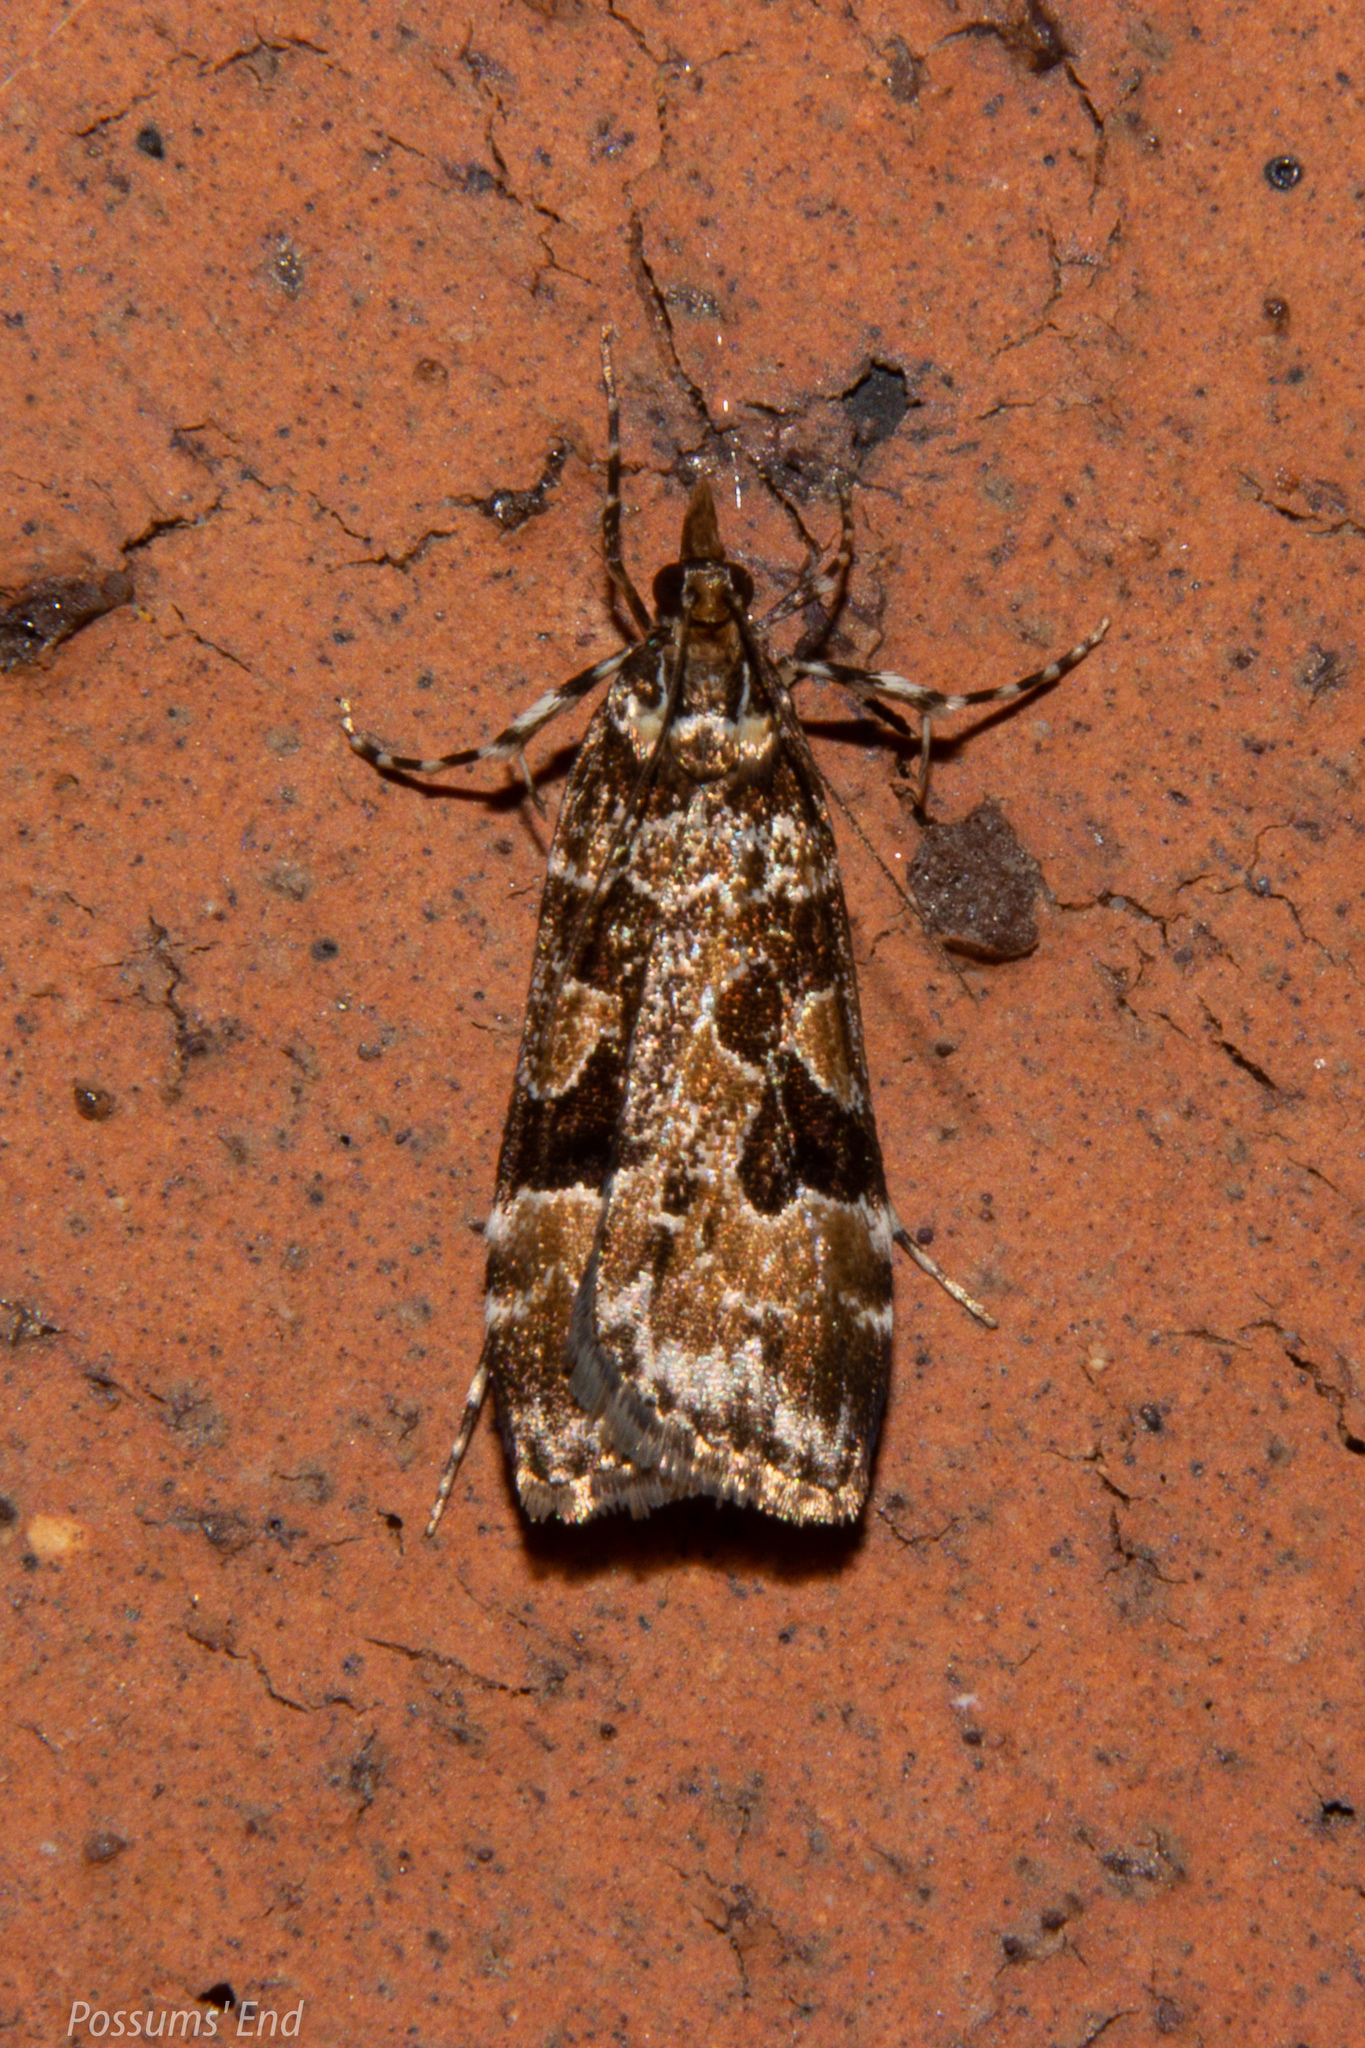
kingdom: Animalia
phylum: Arthropoda
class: Insecta
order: Lepidoptera
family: Crambidae
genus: Scoparia
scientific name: Scoparia ustimacula
